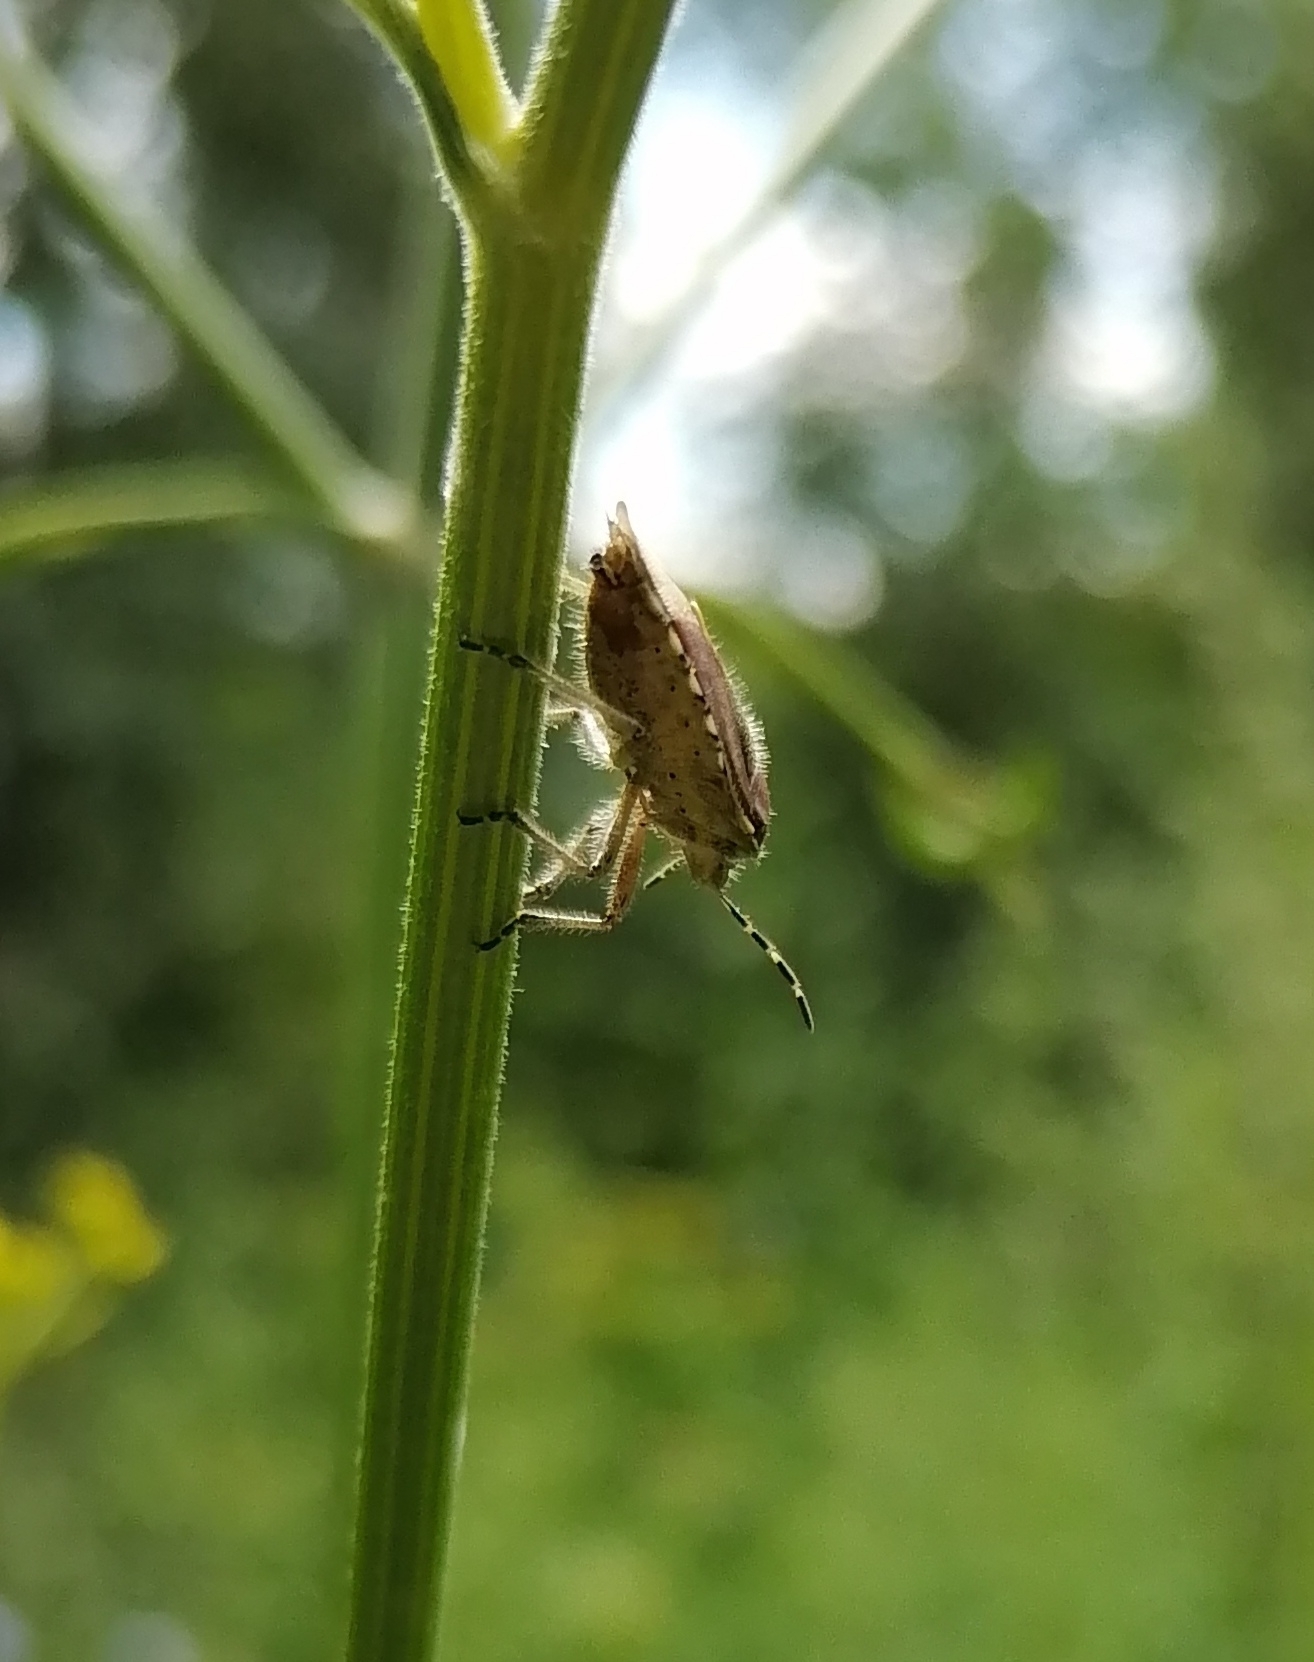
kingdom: Animalia
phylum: Arthropoda
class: Insecta
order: Hemiptera
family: Pentatomidae
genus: Dolycoris
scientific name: Dolycoris baccarum
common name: Sloe bug
